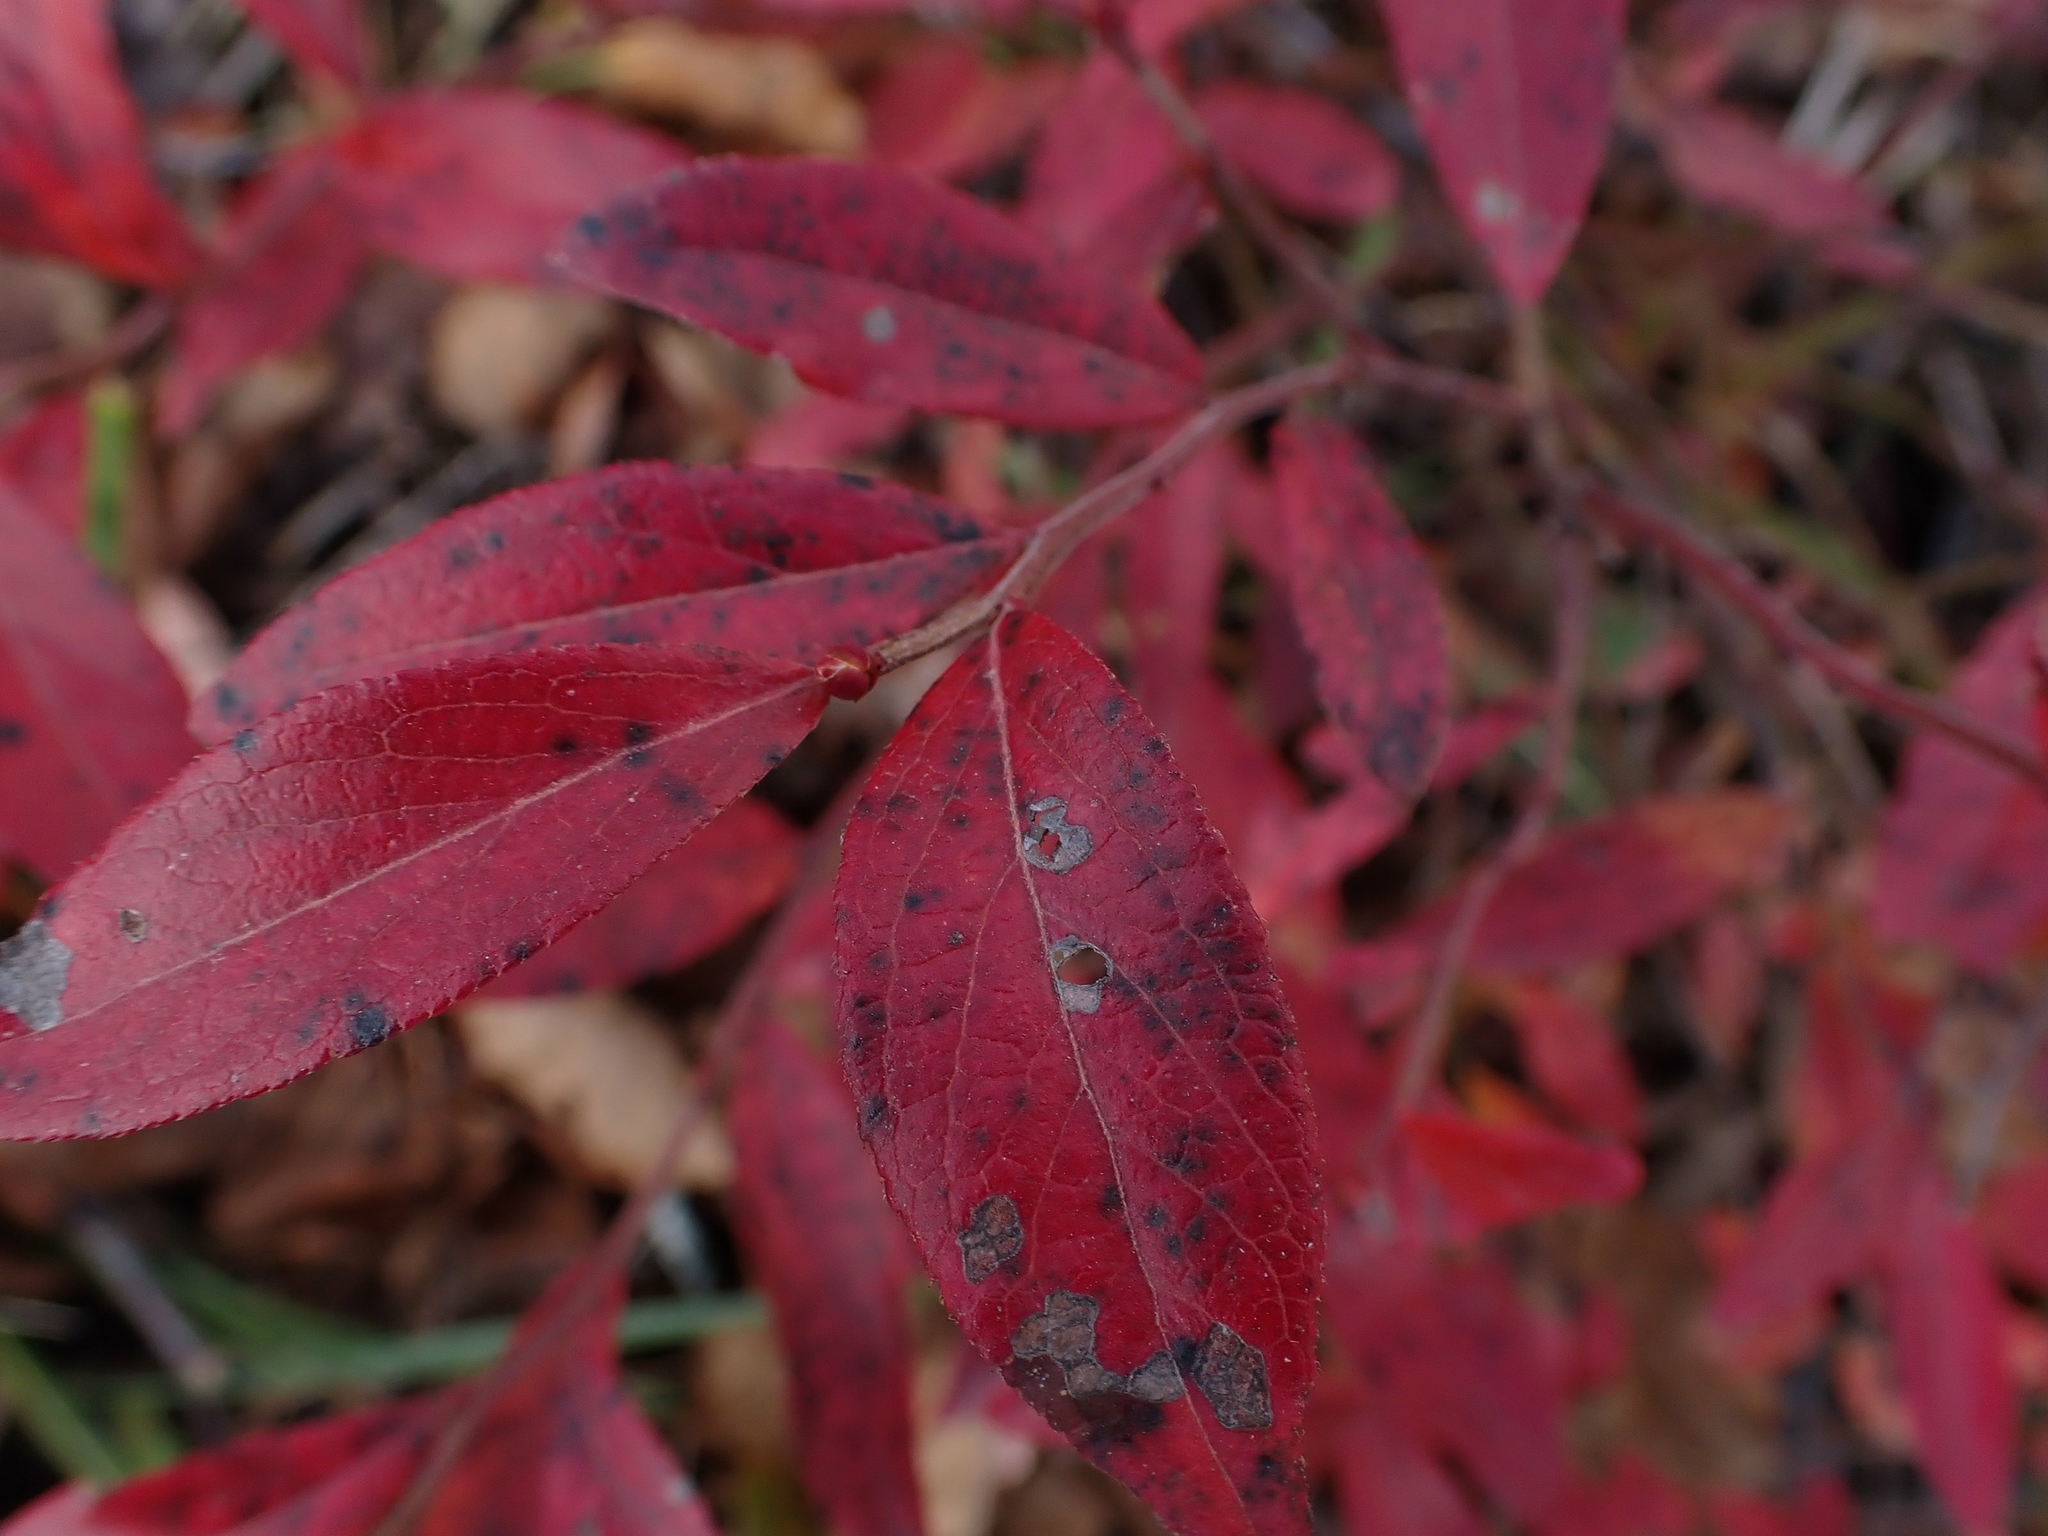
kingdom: Plantae
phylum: Tracheophyta
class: Magnoliopsida
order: Ericales
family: Ericaceae
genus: Vaccinium
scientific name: Vaccinium angustifolium
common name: Early lowbush blueberry
